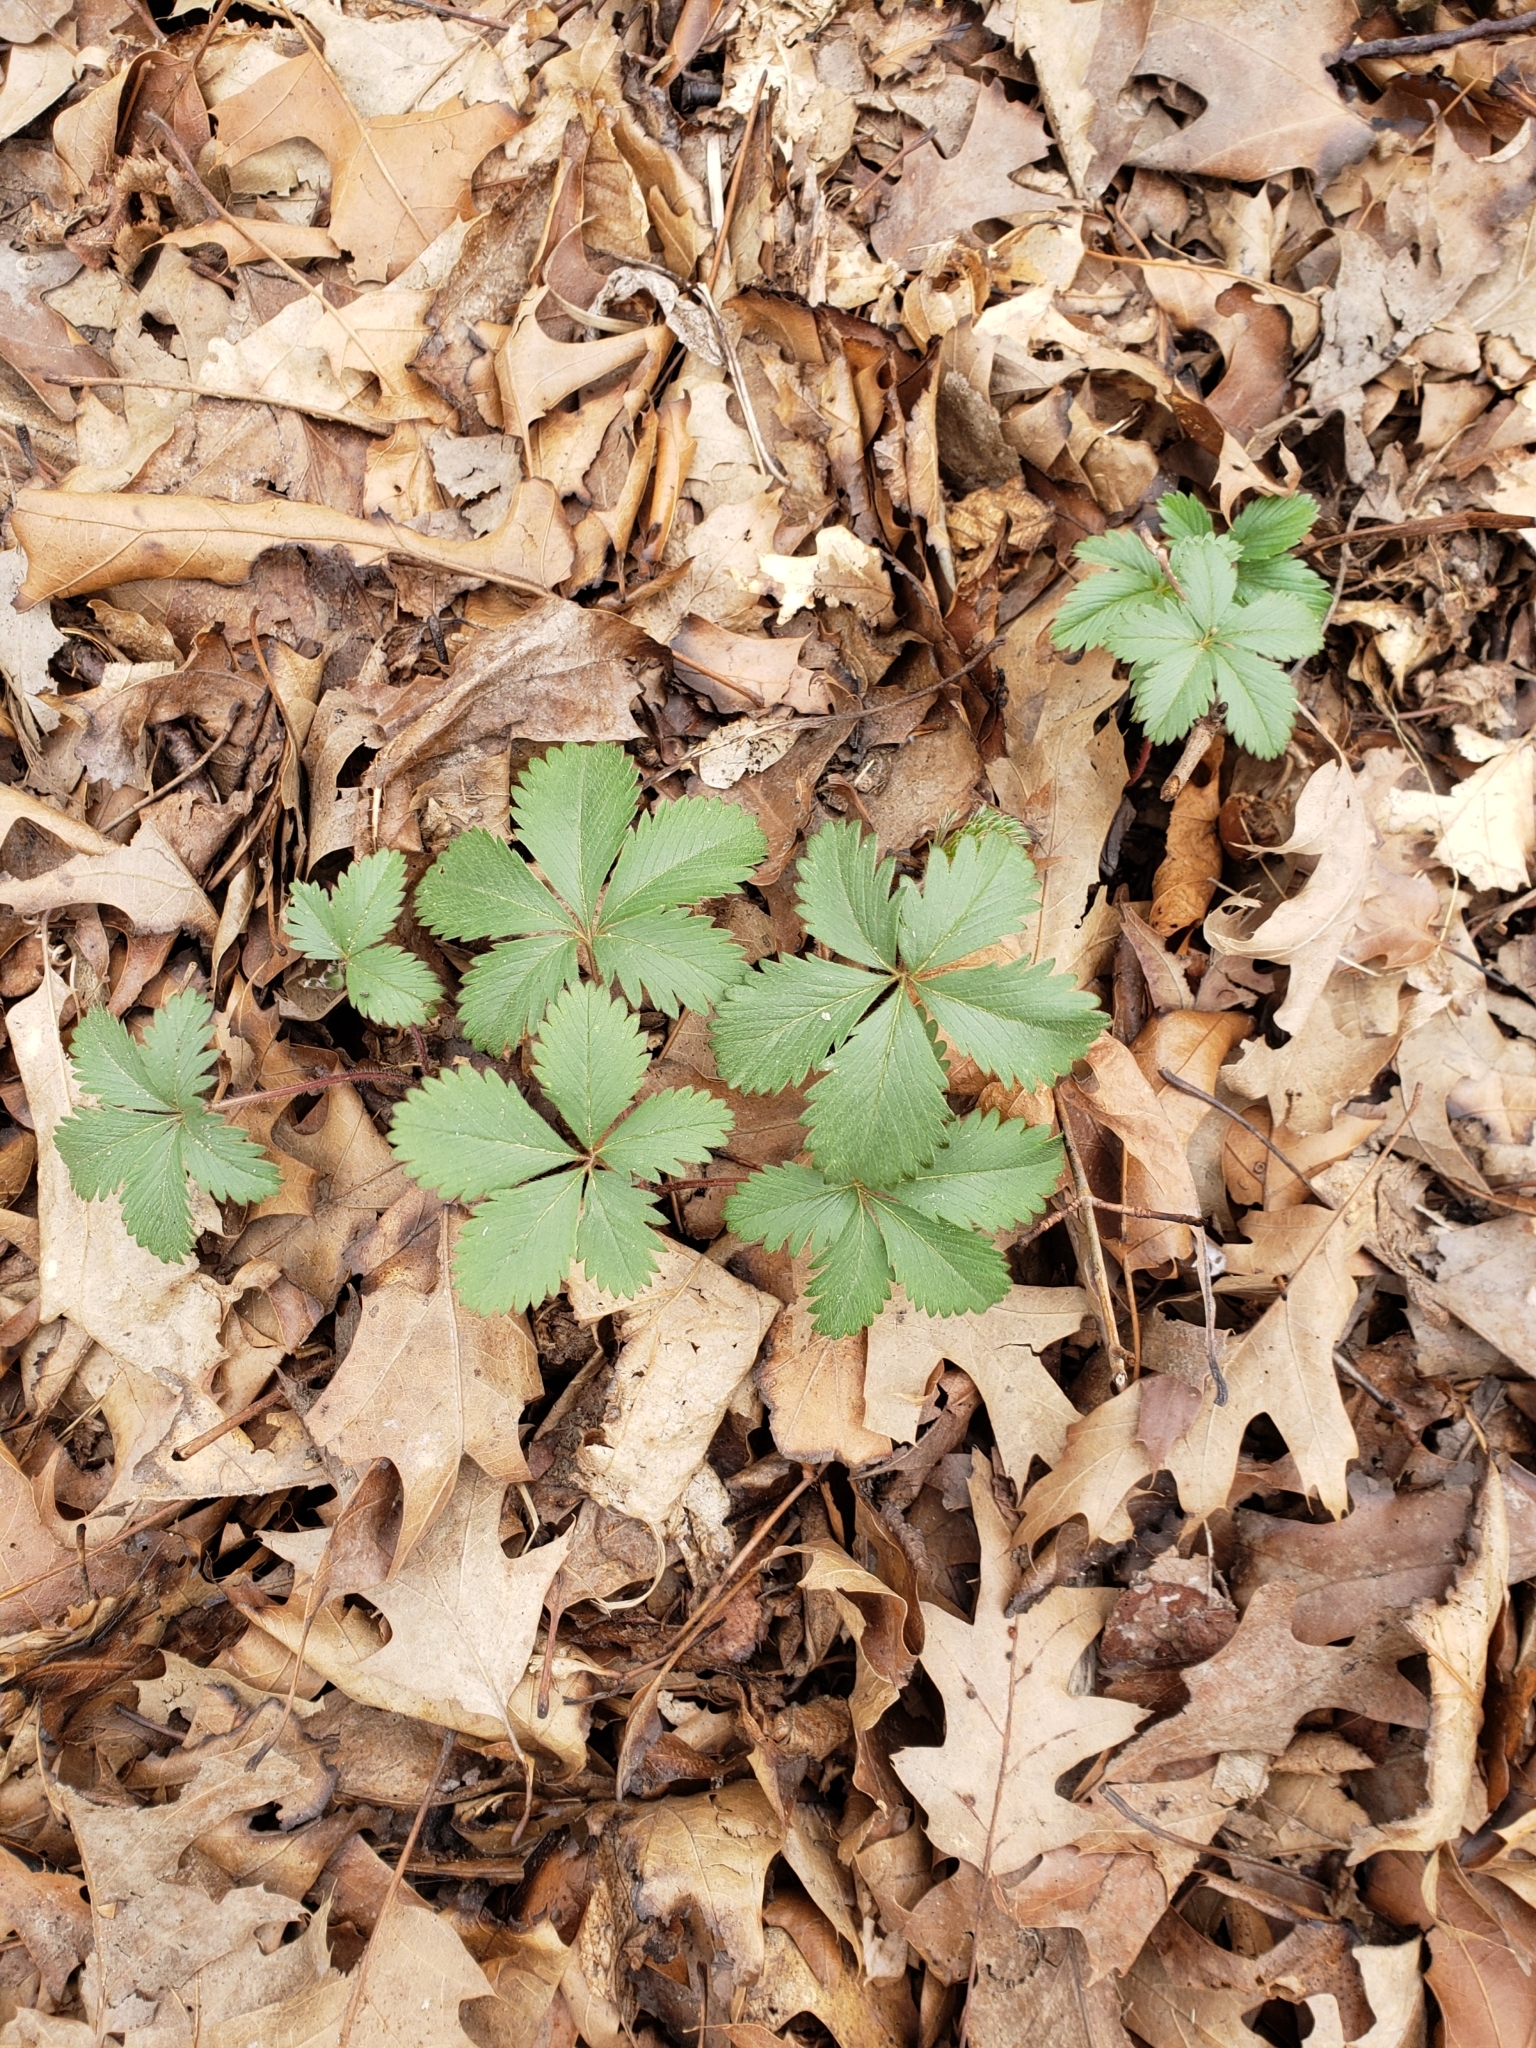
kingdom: Plantae
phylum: Tracheophyta
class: Magnoliopsida
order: Rosales
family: Rosaceae
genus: Potentilla
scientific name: Potentilla simplex
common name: Old field cinquefoil
